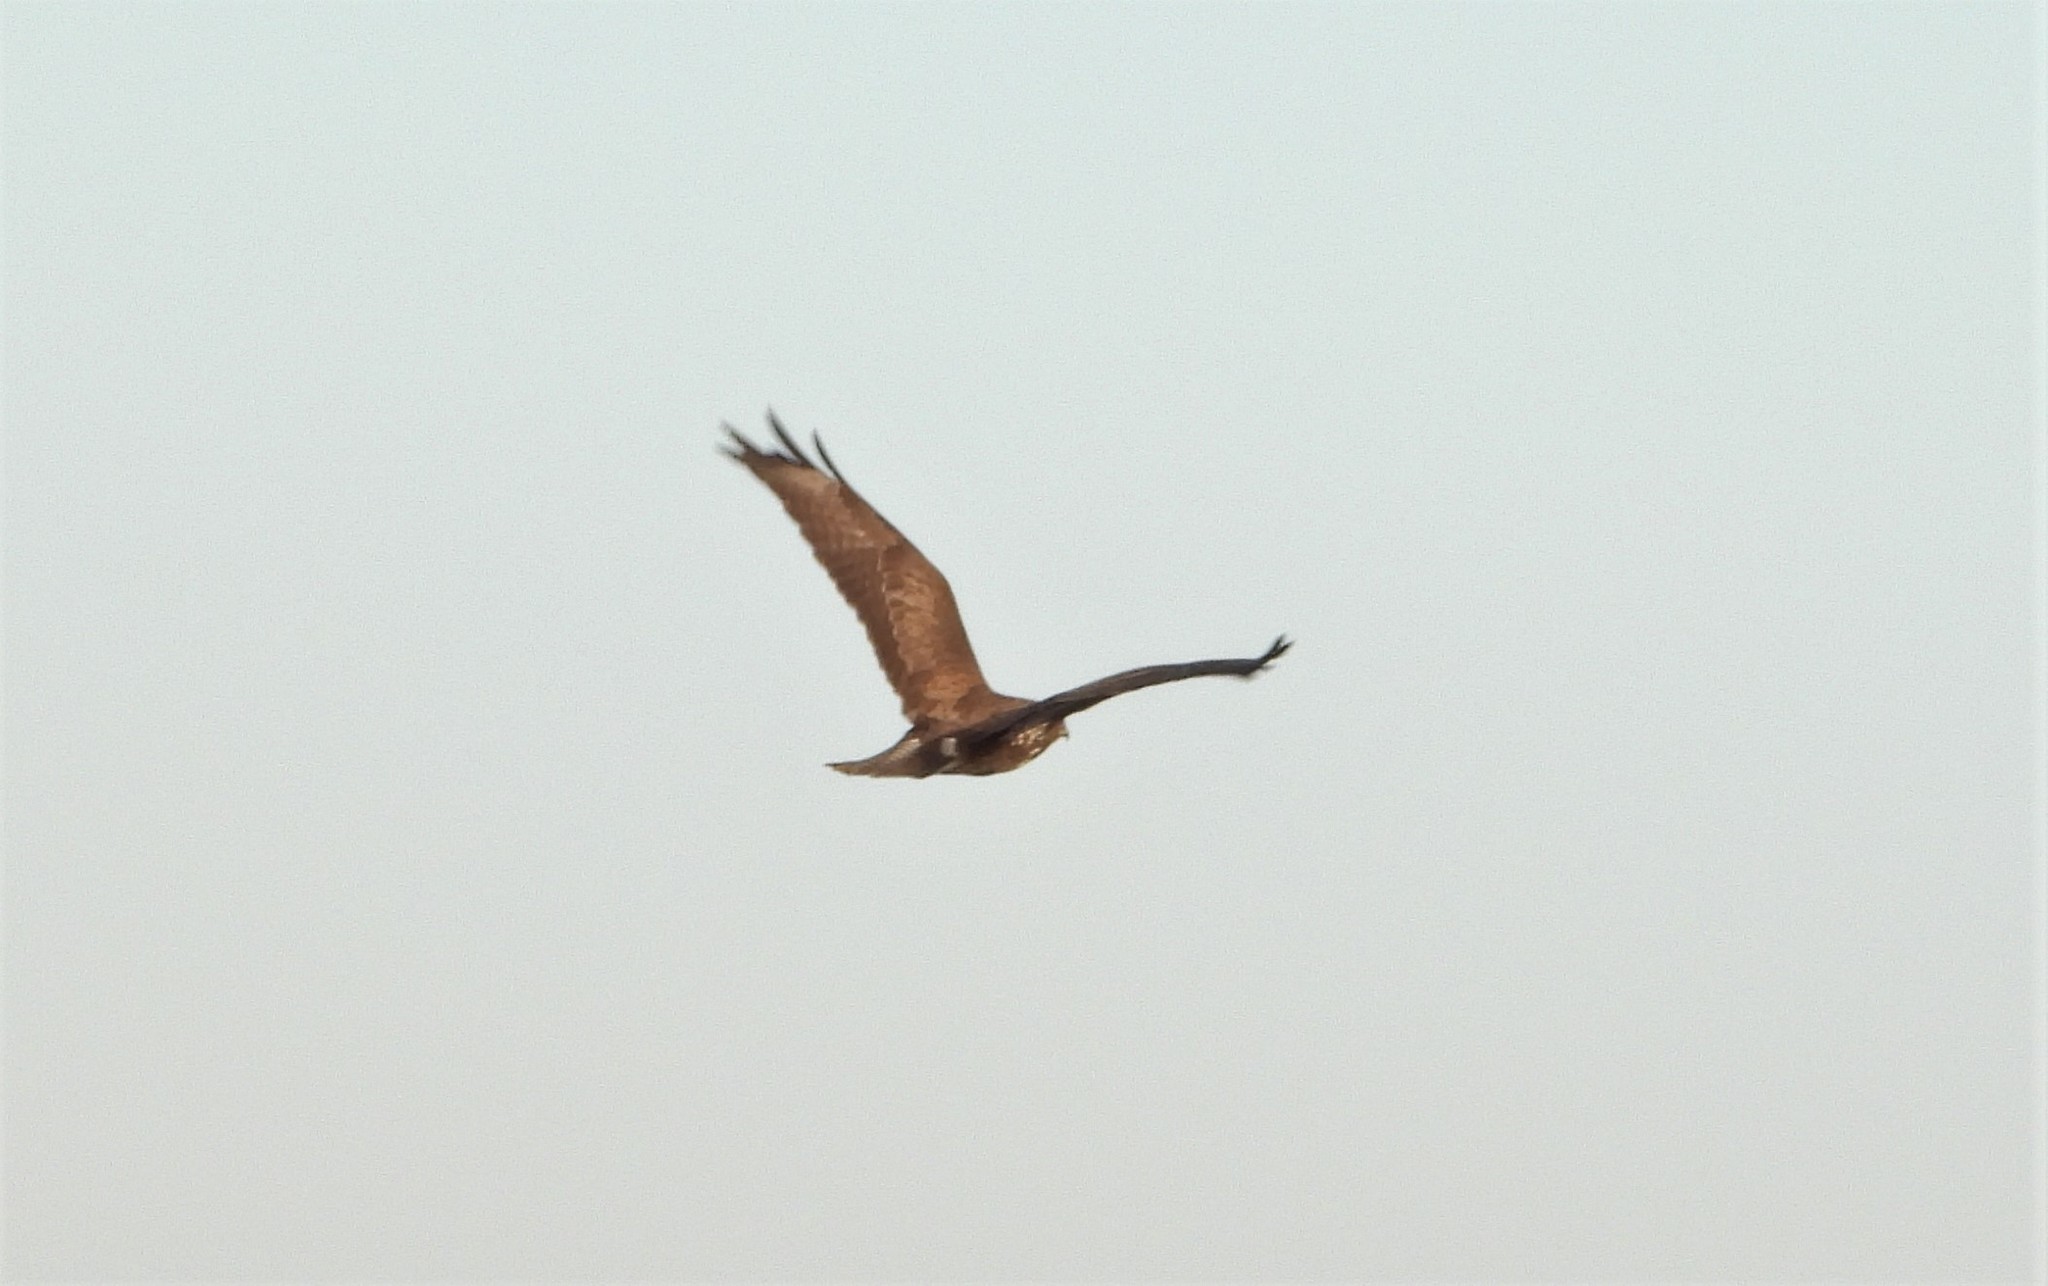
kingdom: Animalia
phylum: Chordata
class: Aves
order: Accipitriformes
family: Accipitridae
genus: Buteo
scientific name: Buteo buteo
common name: Common buzzard
